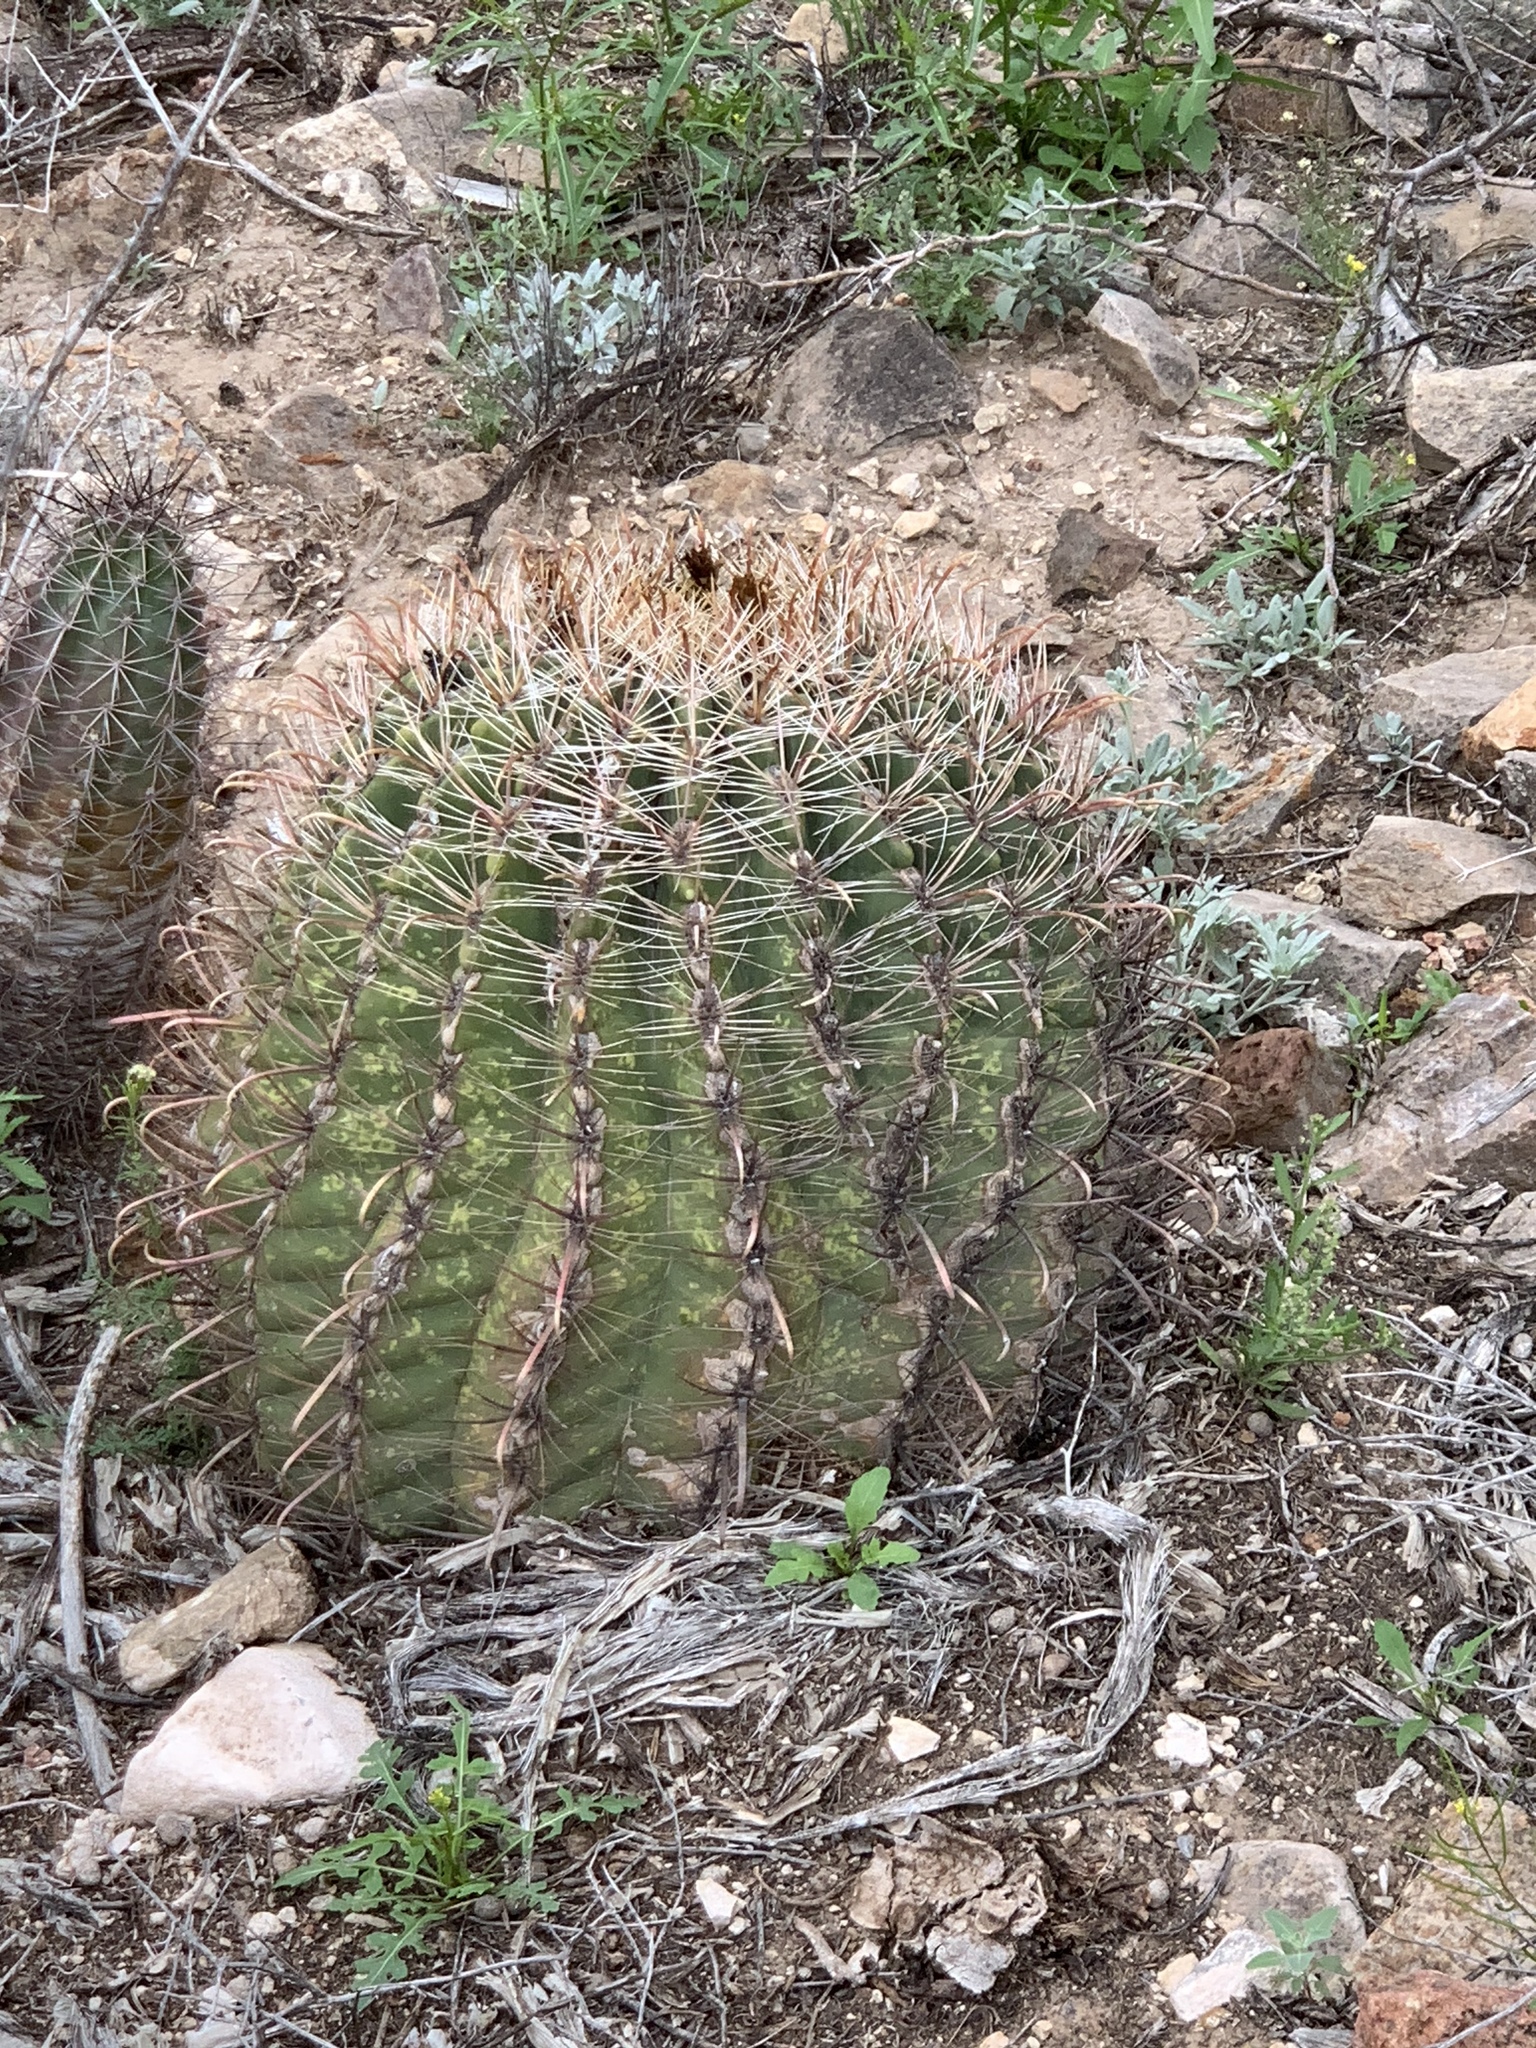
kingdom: Plantae
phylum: Tracheophyta
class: Magnoliopsida
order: Caryophyllales
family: Cactaceae
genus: Ferocactus
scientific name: Ferocactus wislizeni
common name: Candy barrel cactus
